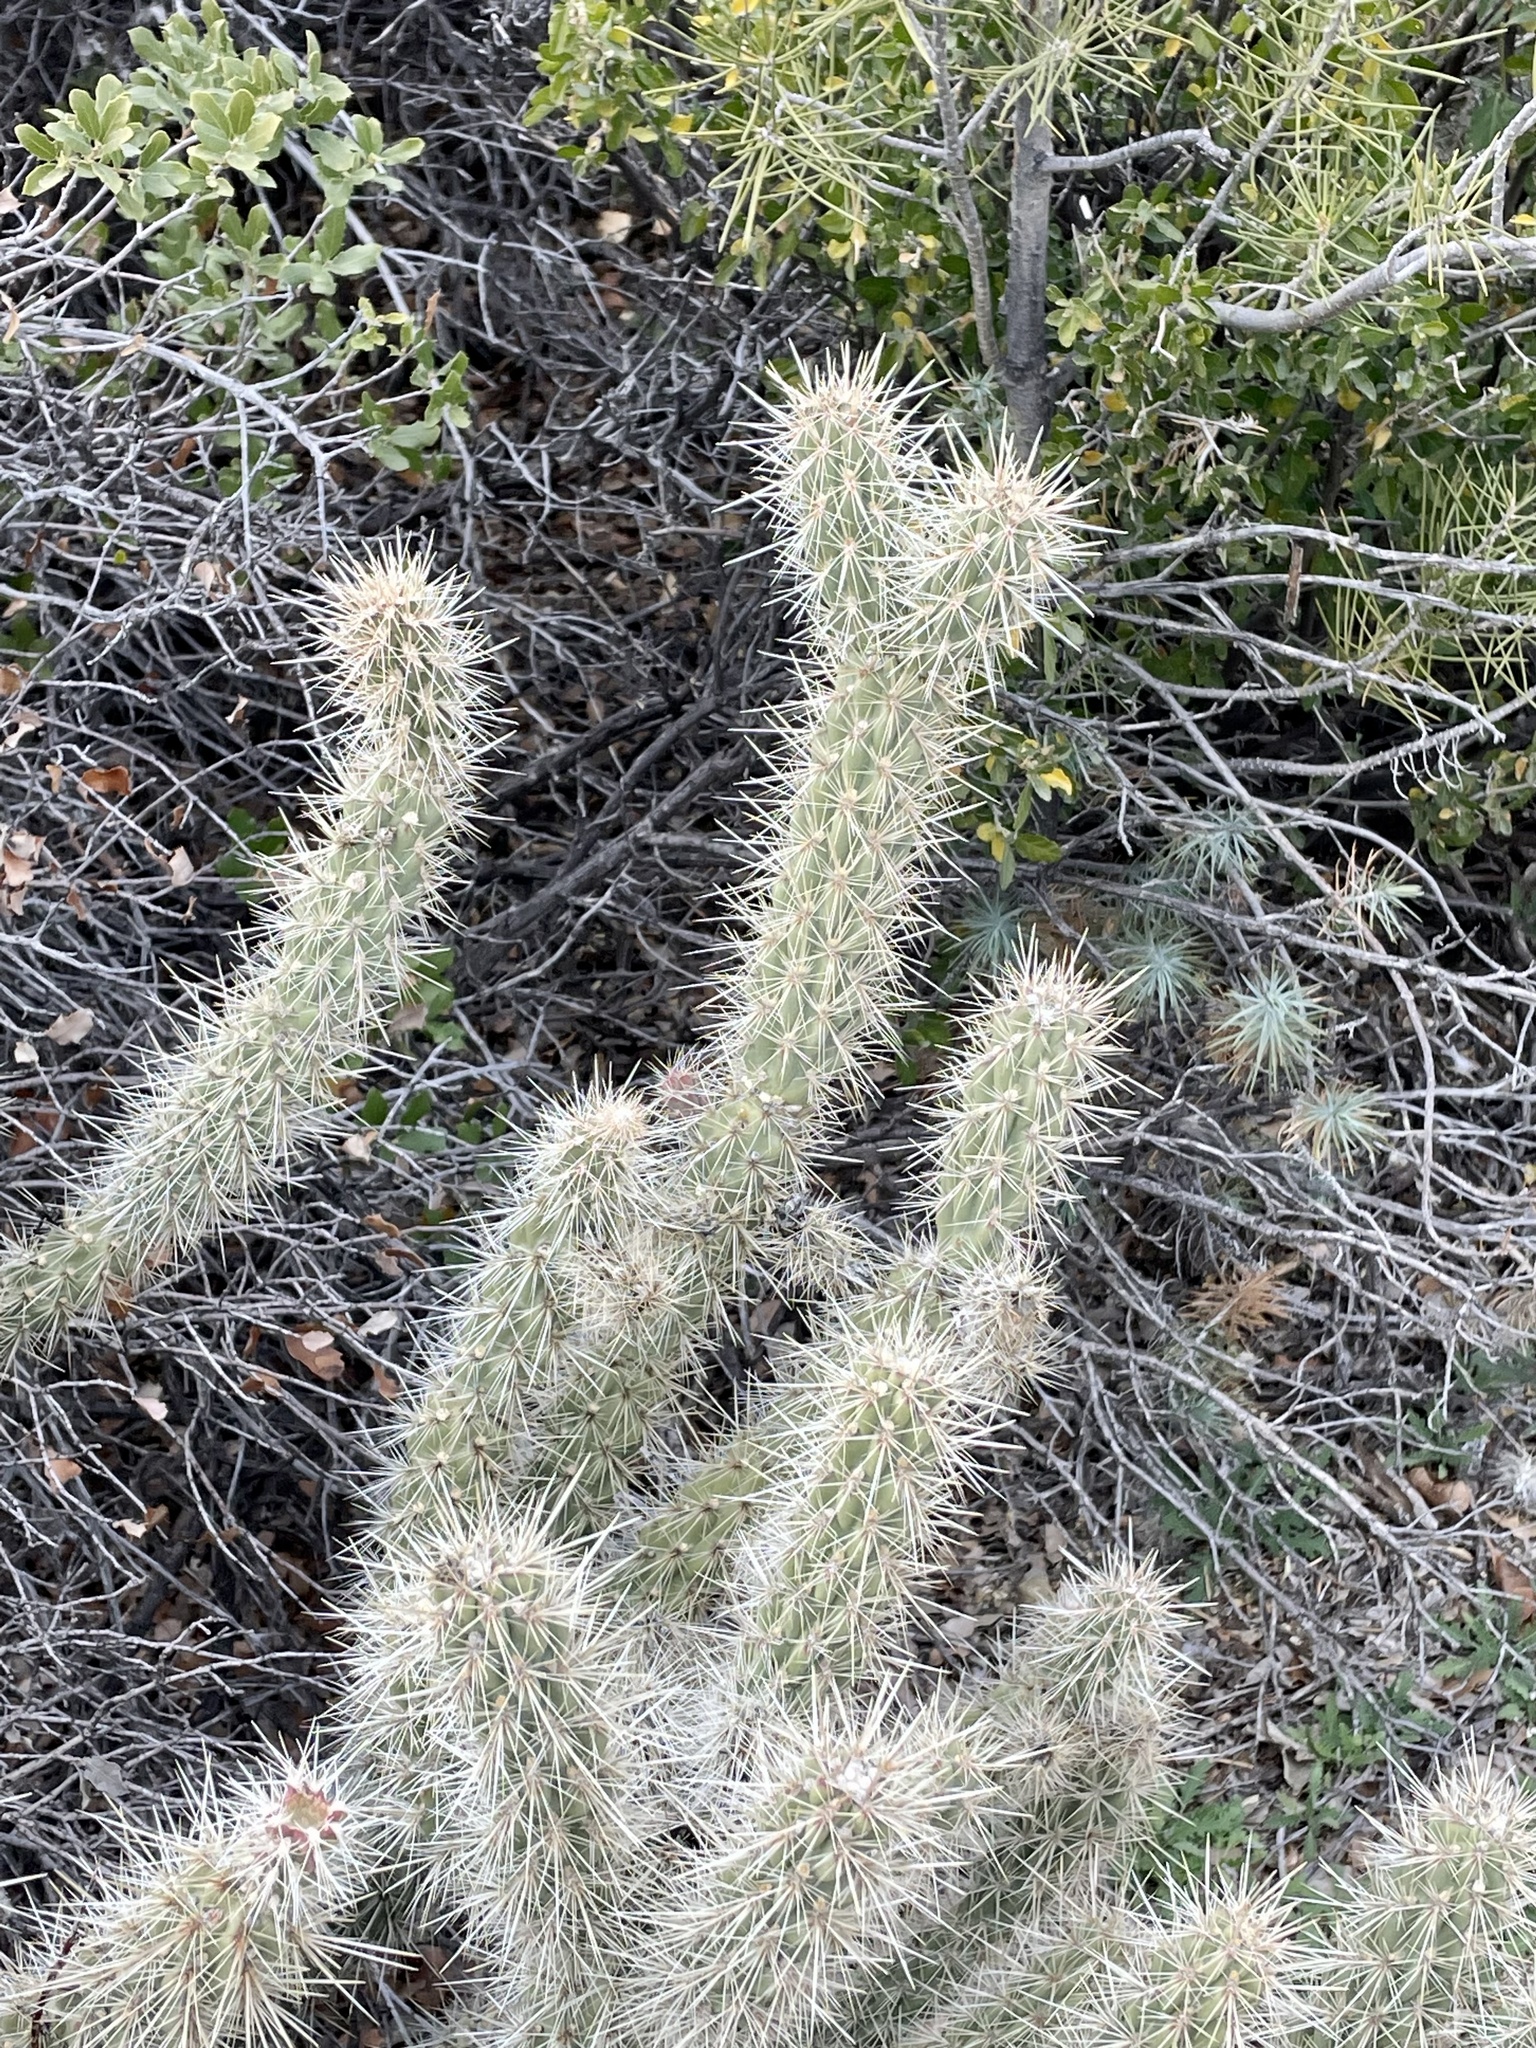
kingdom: Plantae
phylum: Tracheophyta
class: Magnoliopsida
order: Caryophyllales
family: Cactaceae
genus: Cylindropuntia
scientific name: Cylindropuntia ganderi
